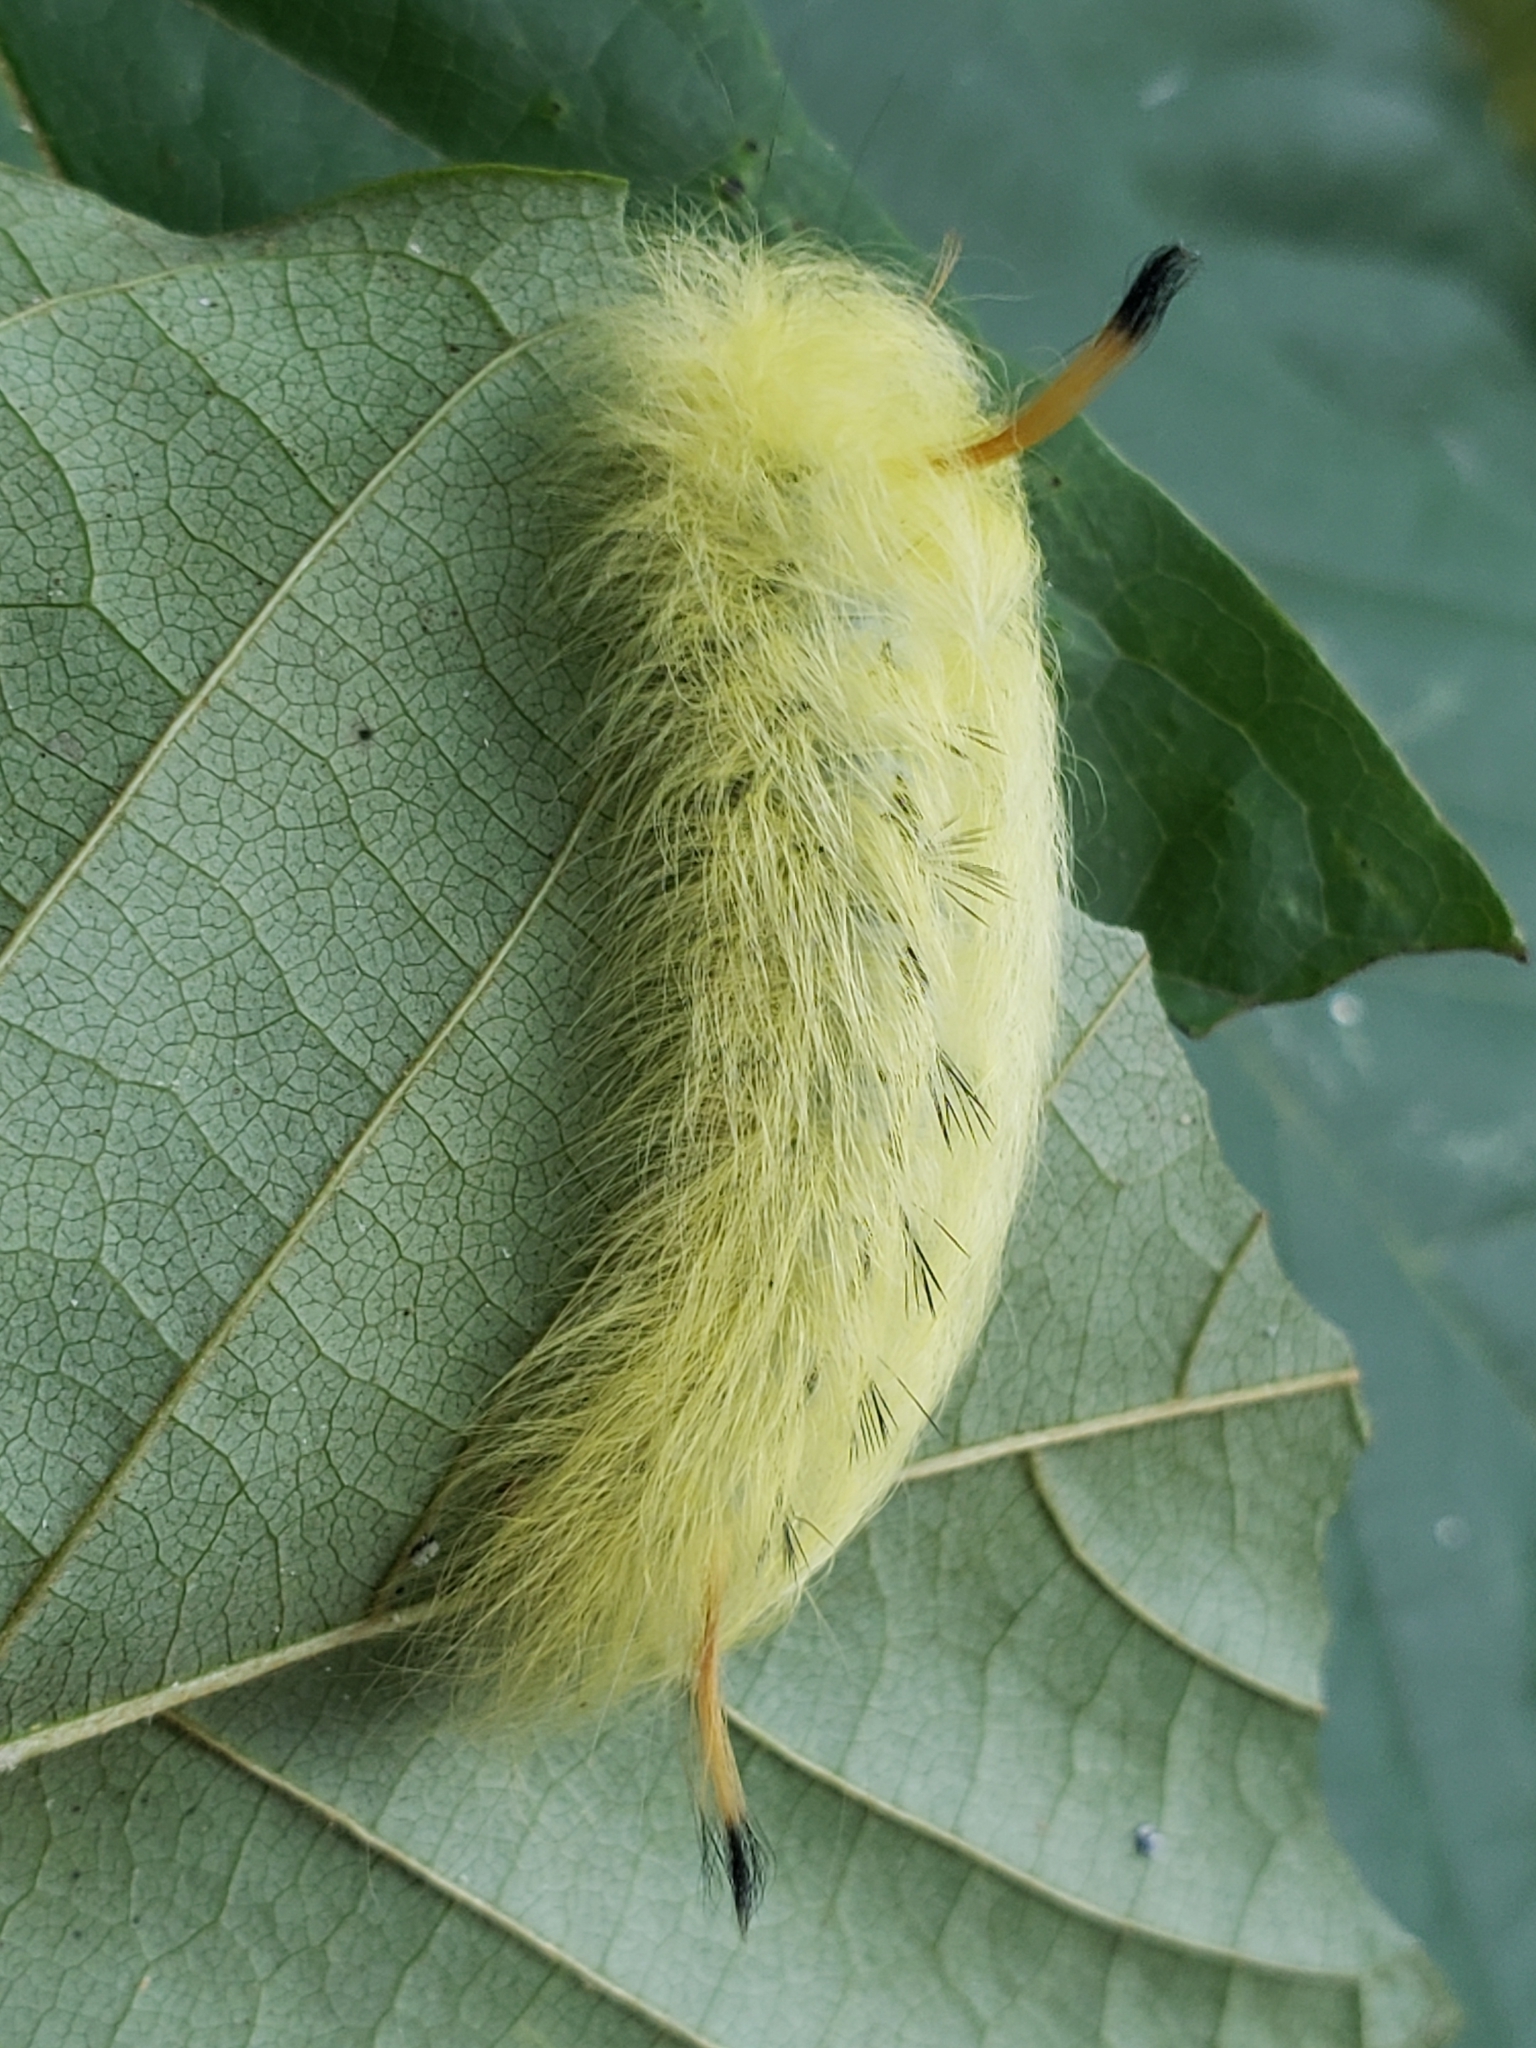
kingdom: Animalia
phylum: Arthropoda
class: Insecta
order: Lepidoptera
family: Apatelodidae
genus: Hygrochroa
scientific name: Hygrochroa Apatelodes torrefacta
